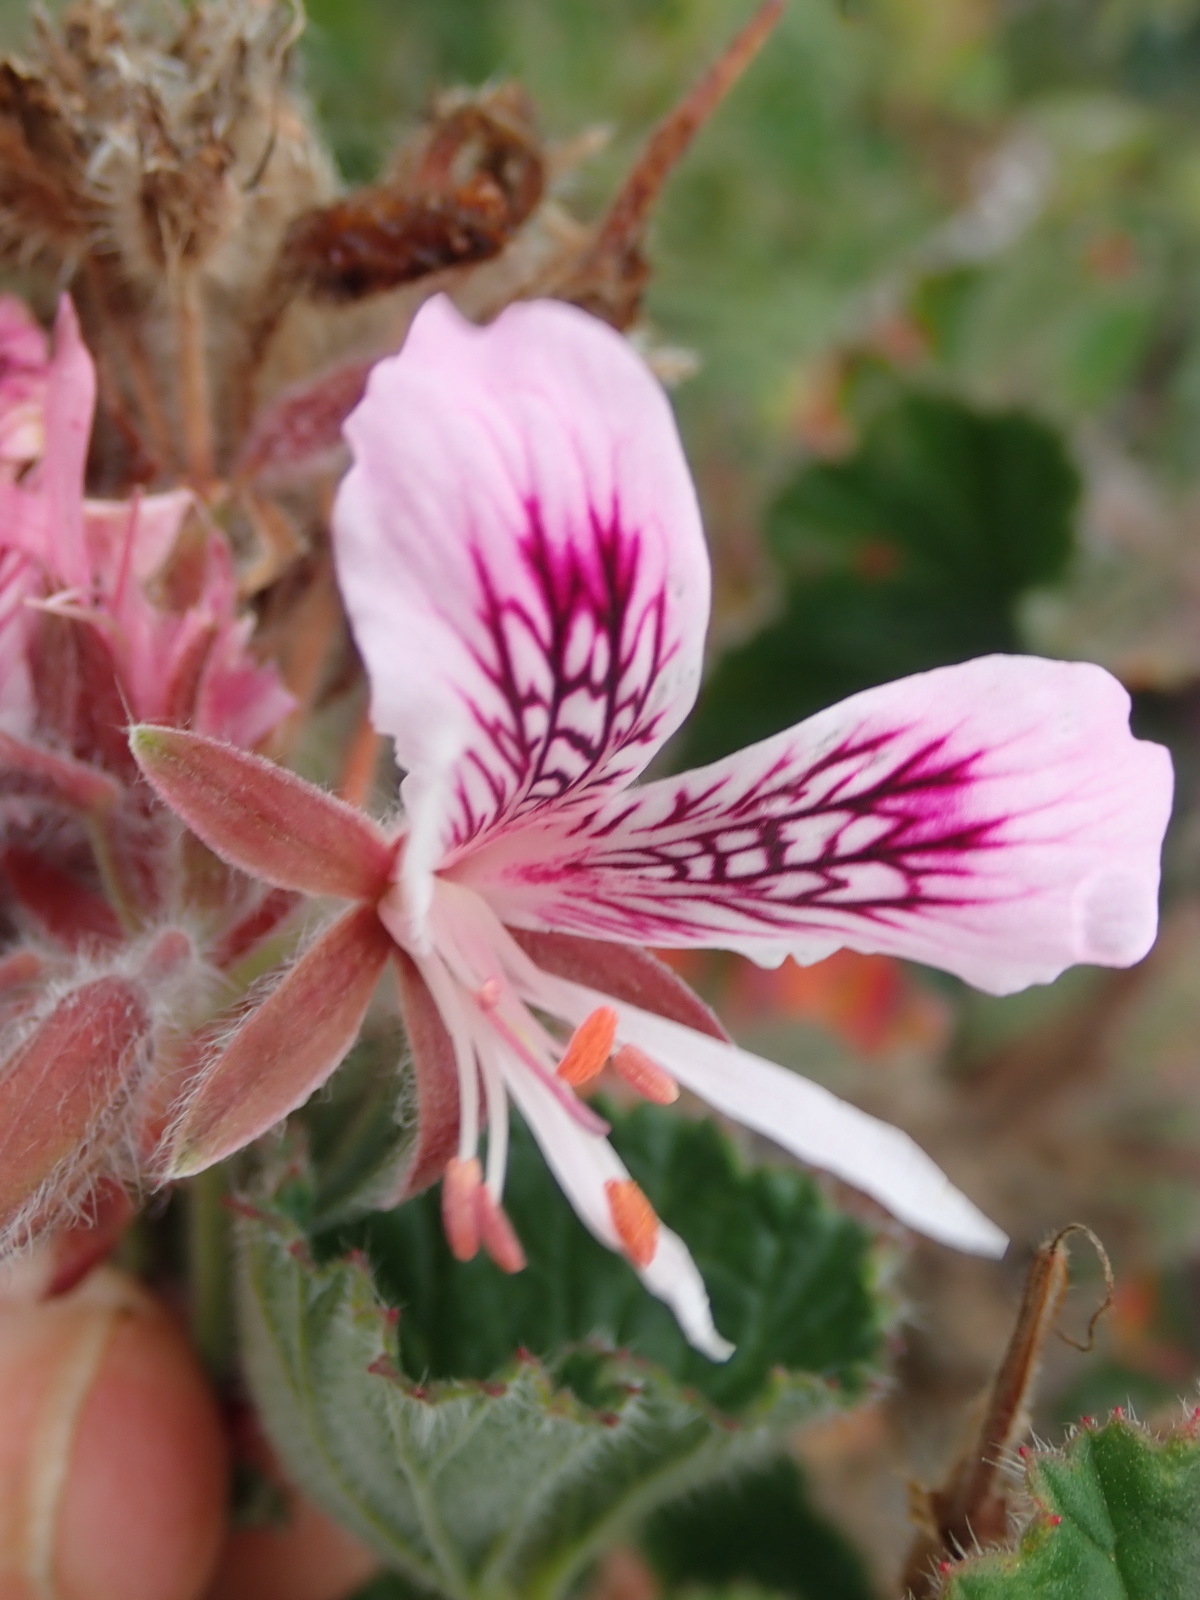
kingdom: Plantae
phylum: Tracheophyta
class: Magnoliopsida
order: Geraniales
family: Geraniaceae
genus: Pelargonium
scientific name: Pelargonium cordifolium
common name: Heart-leaf pelargonium
